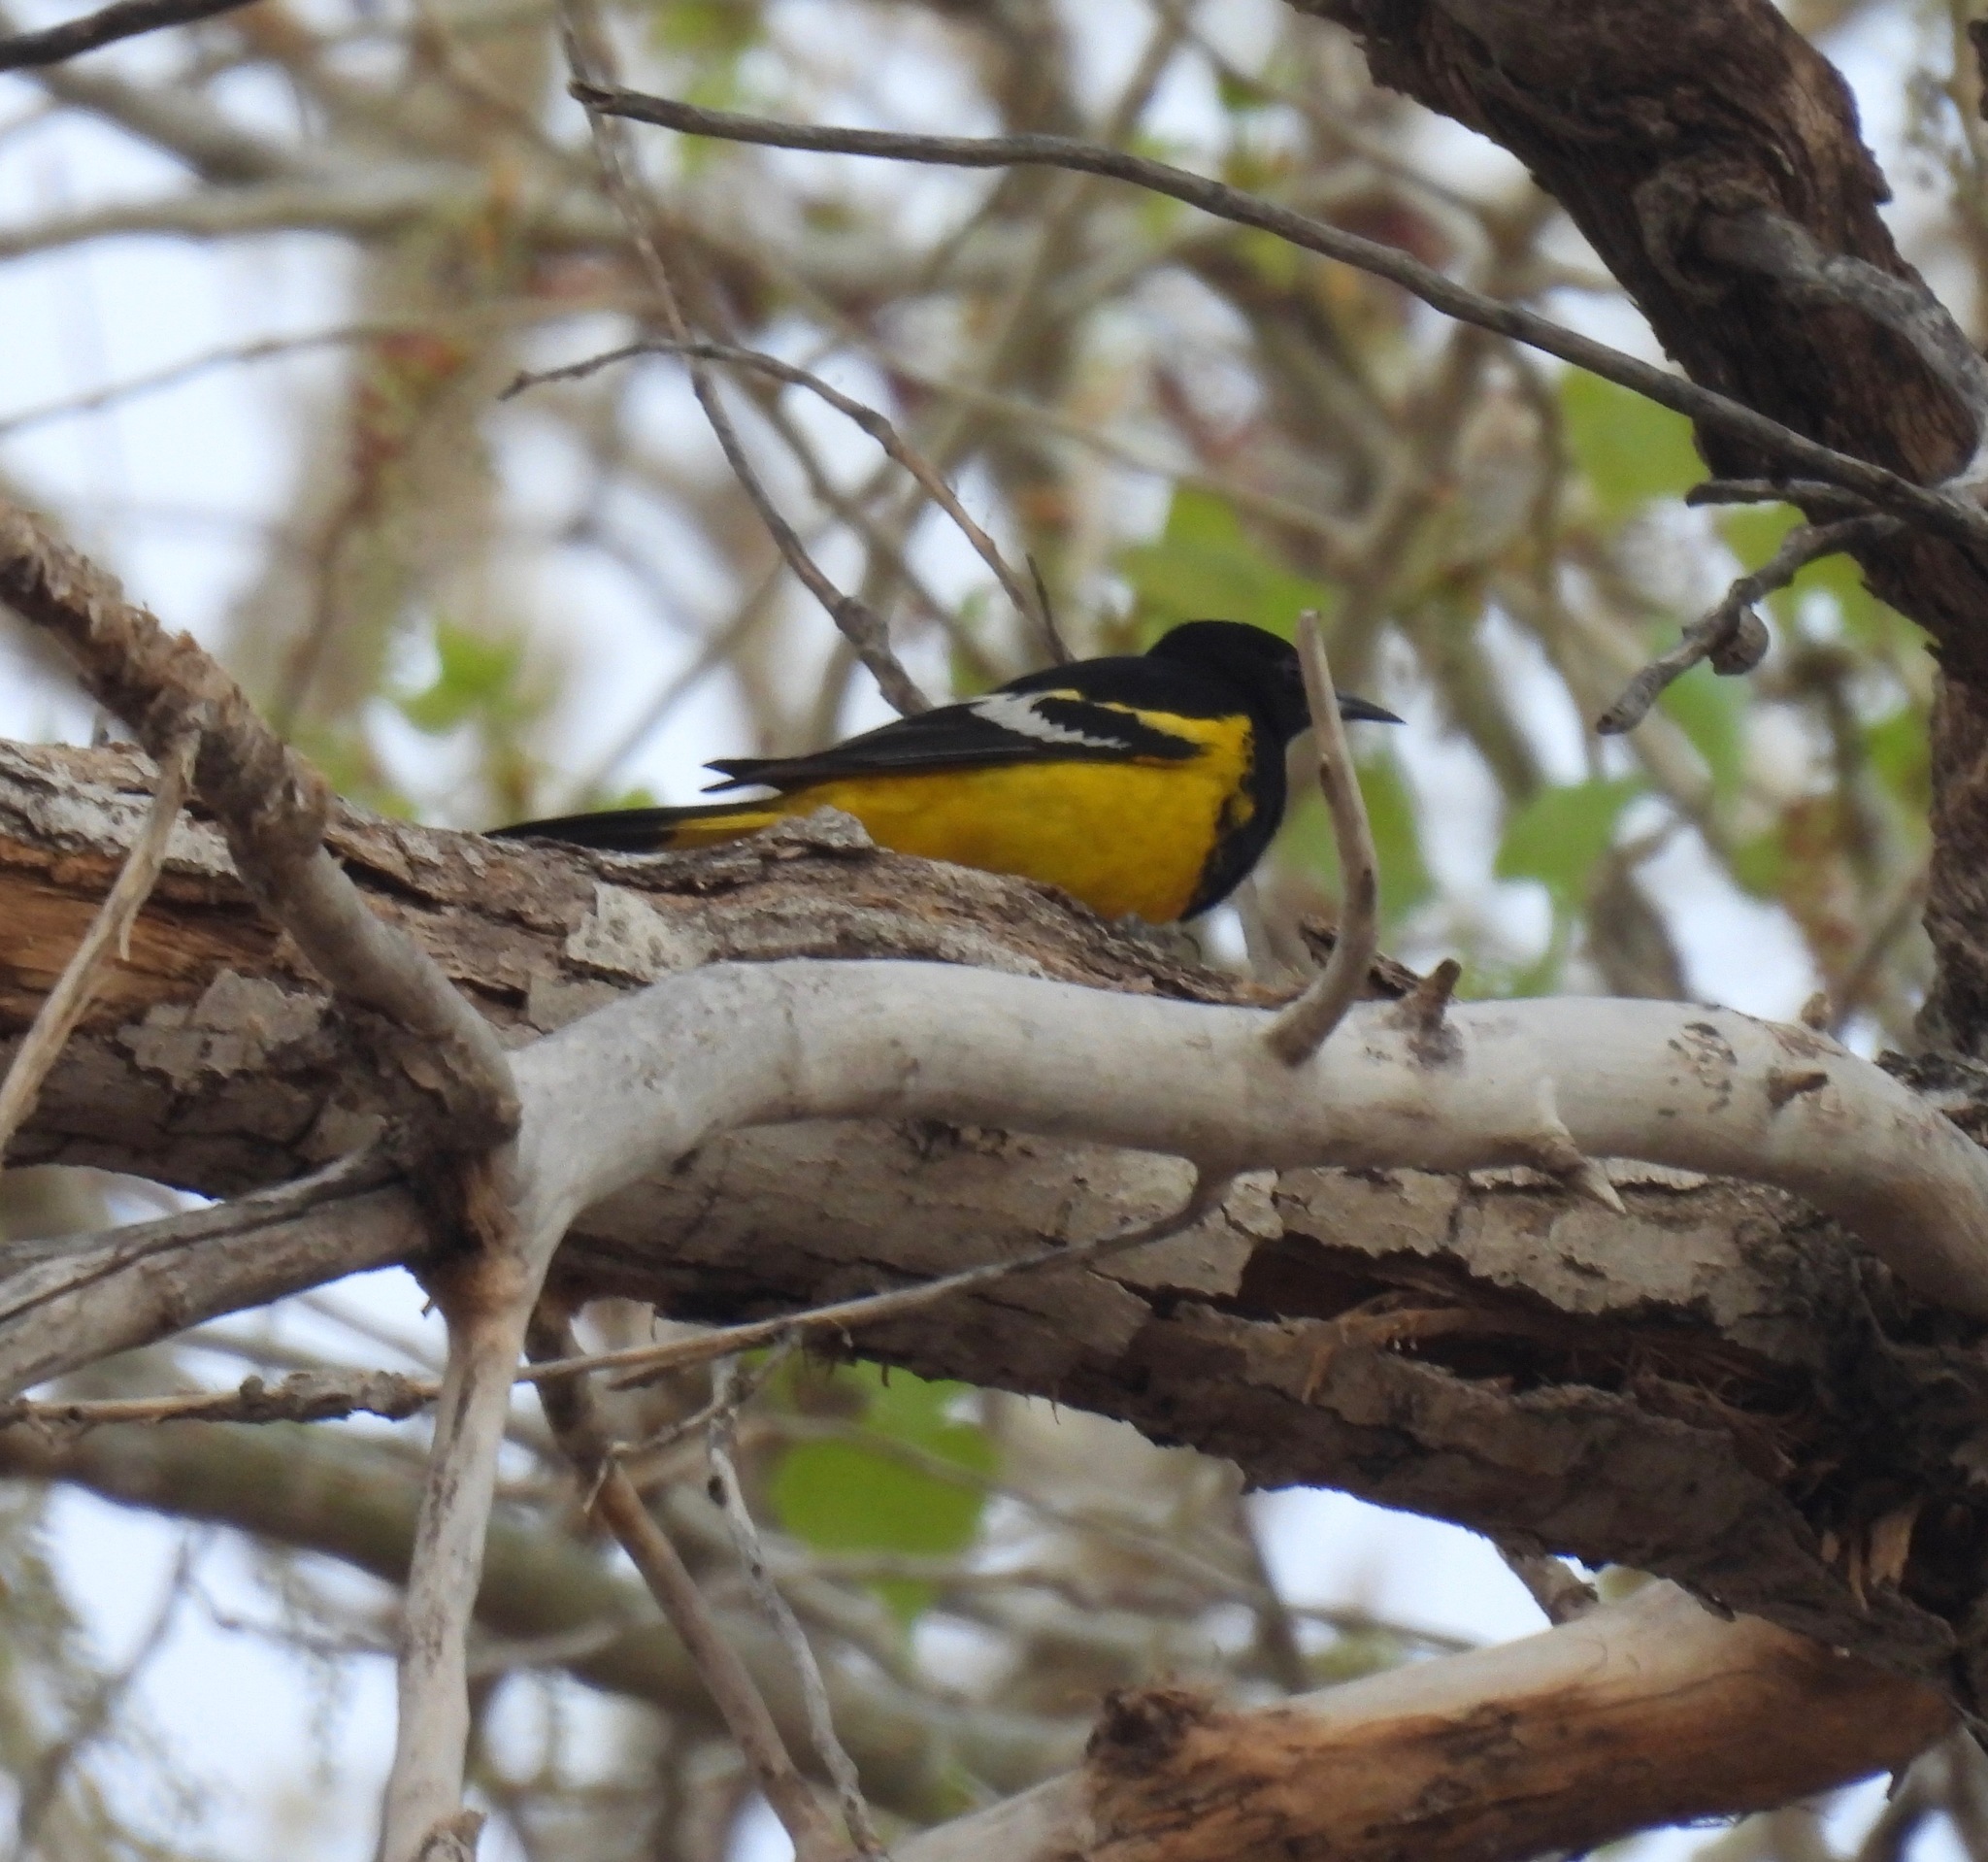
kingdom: Animalia
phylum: Chordata
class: Aves
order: Passeriformes
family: Icteridae
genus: Icterus
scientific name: Icterus parisorum
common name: Scott's oriole
